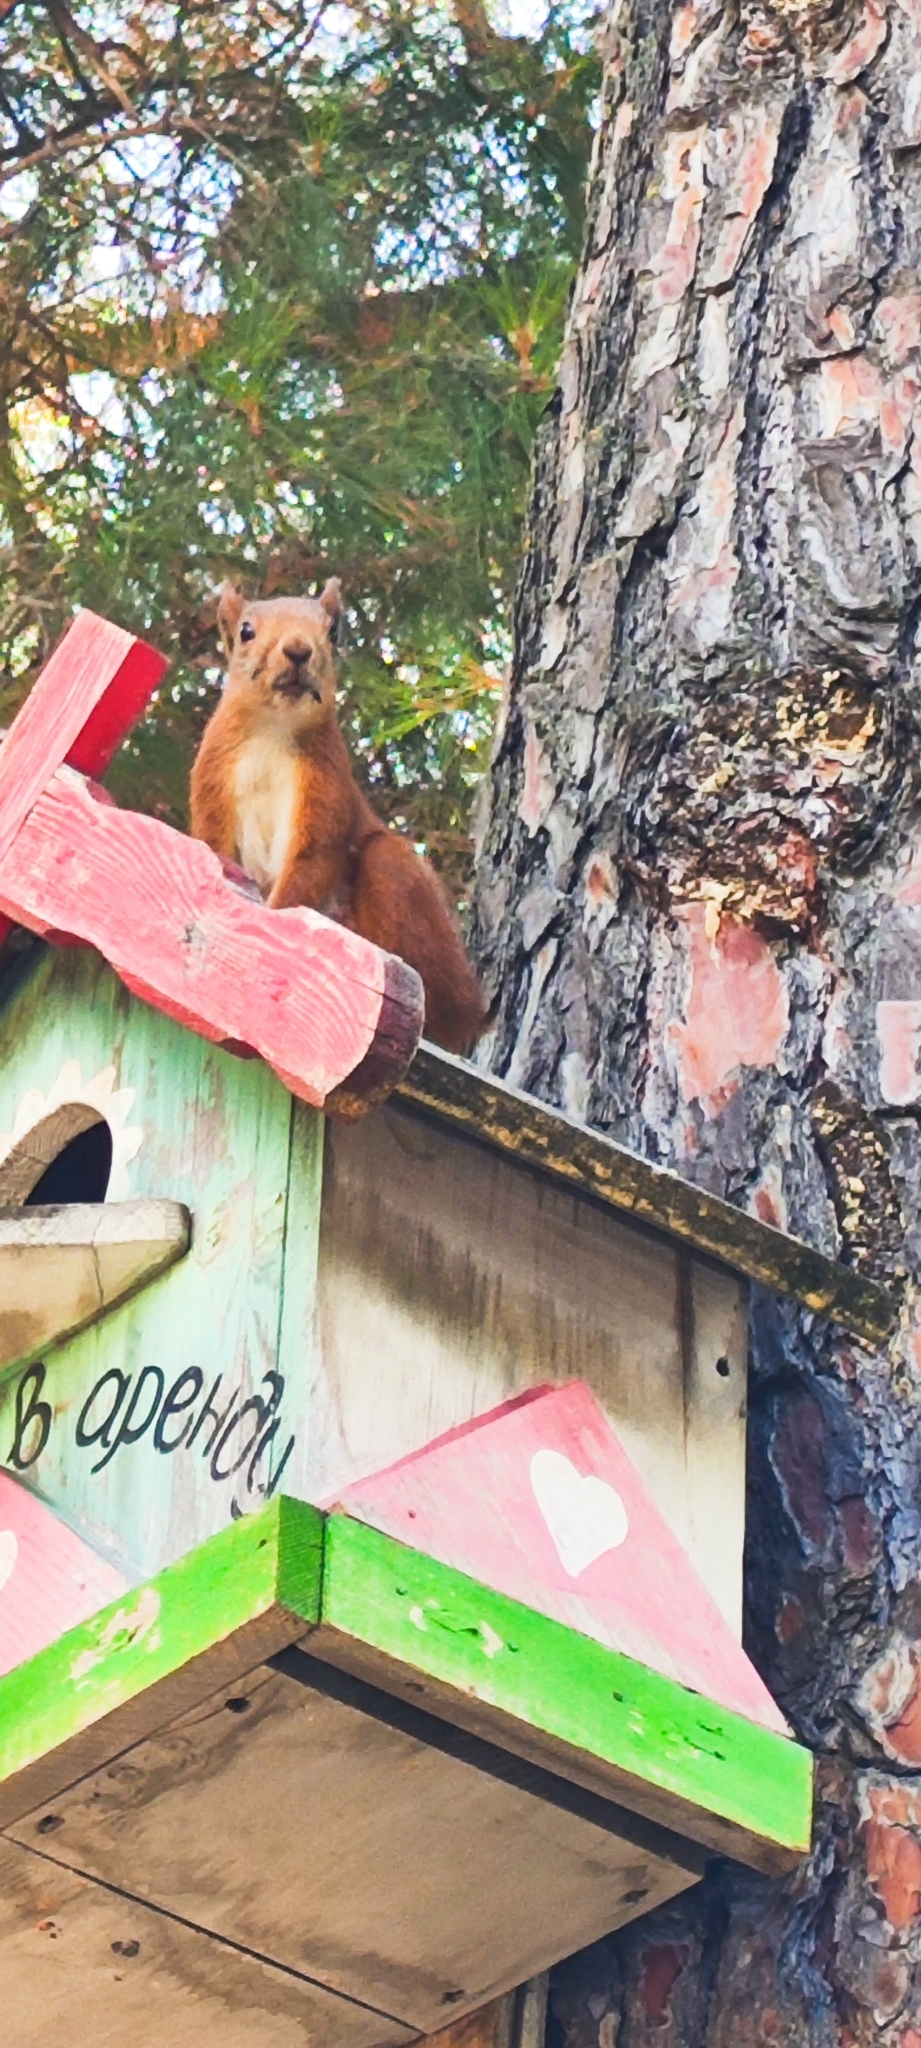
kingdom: Animalia
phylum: Chordata
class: Mammalia
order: Rodentia
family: Sciuridae
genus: Sciurus
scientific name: Sciurus vulgaris
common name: Eurasian red squirrel
